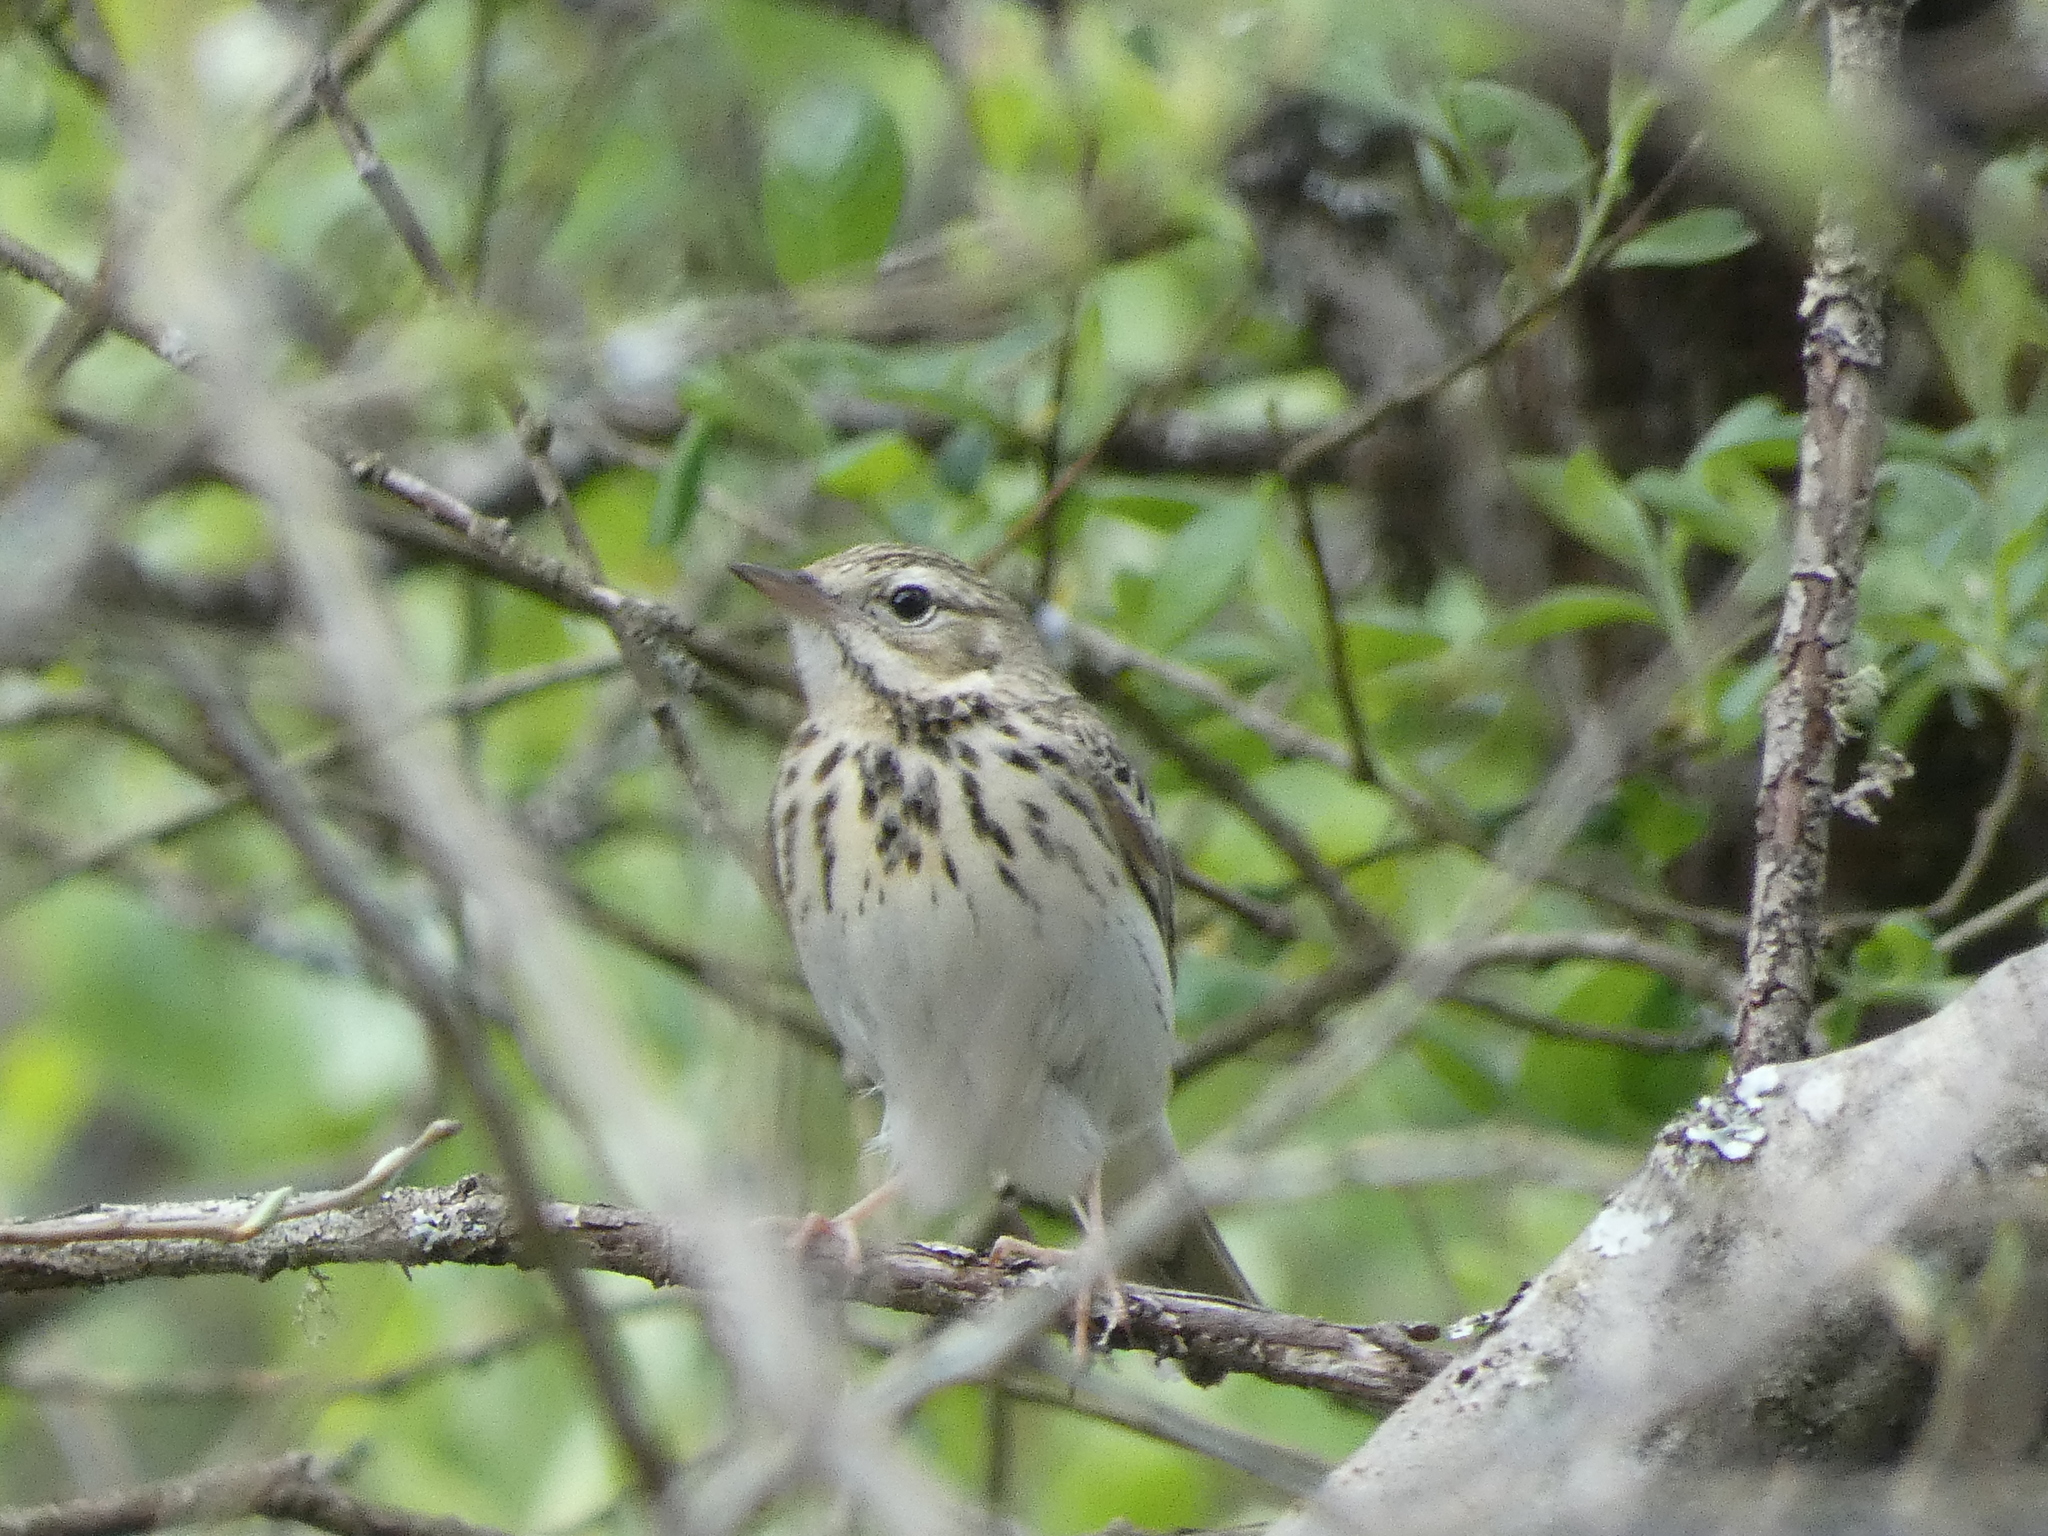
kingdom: Animalia
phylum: Chordata
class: Aves
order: Passeriformes
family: Motacillidae
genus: Anthus
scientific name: Anthus trivialis
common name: Tree pipit
